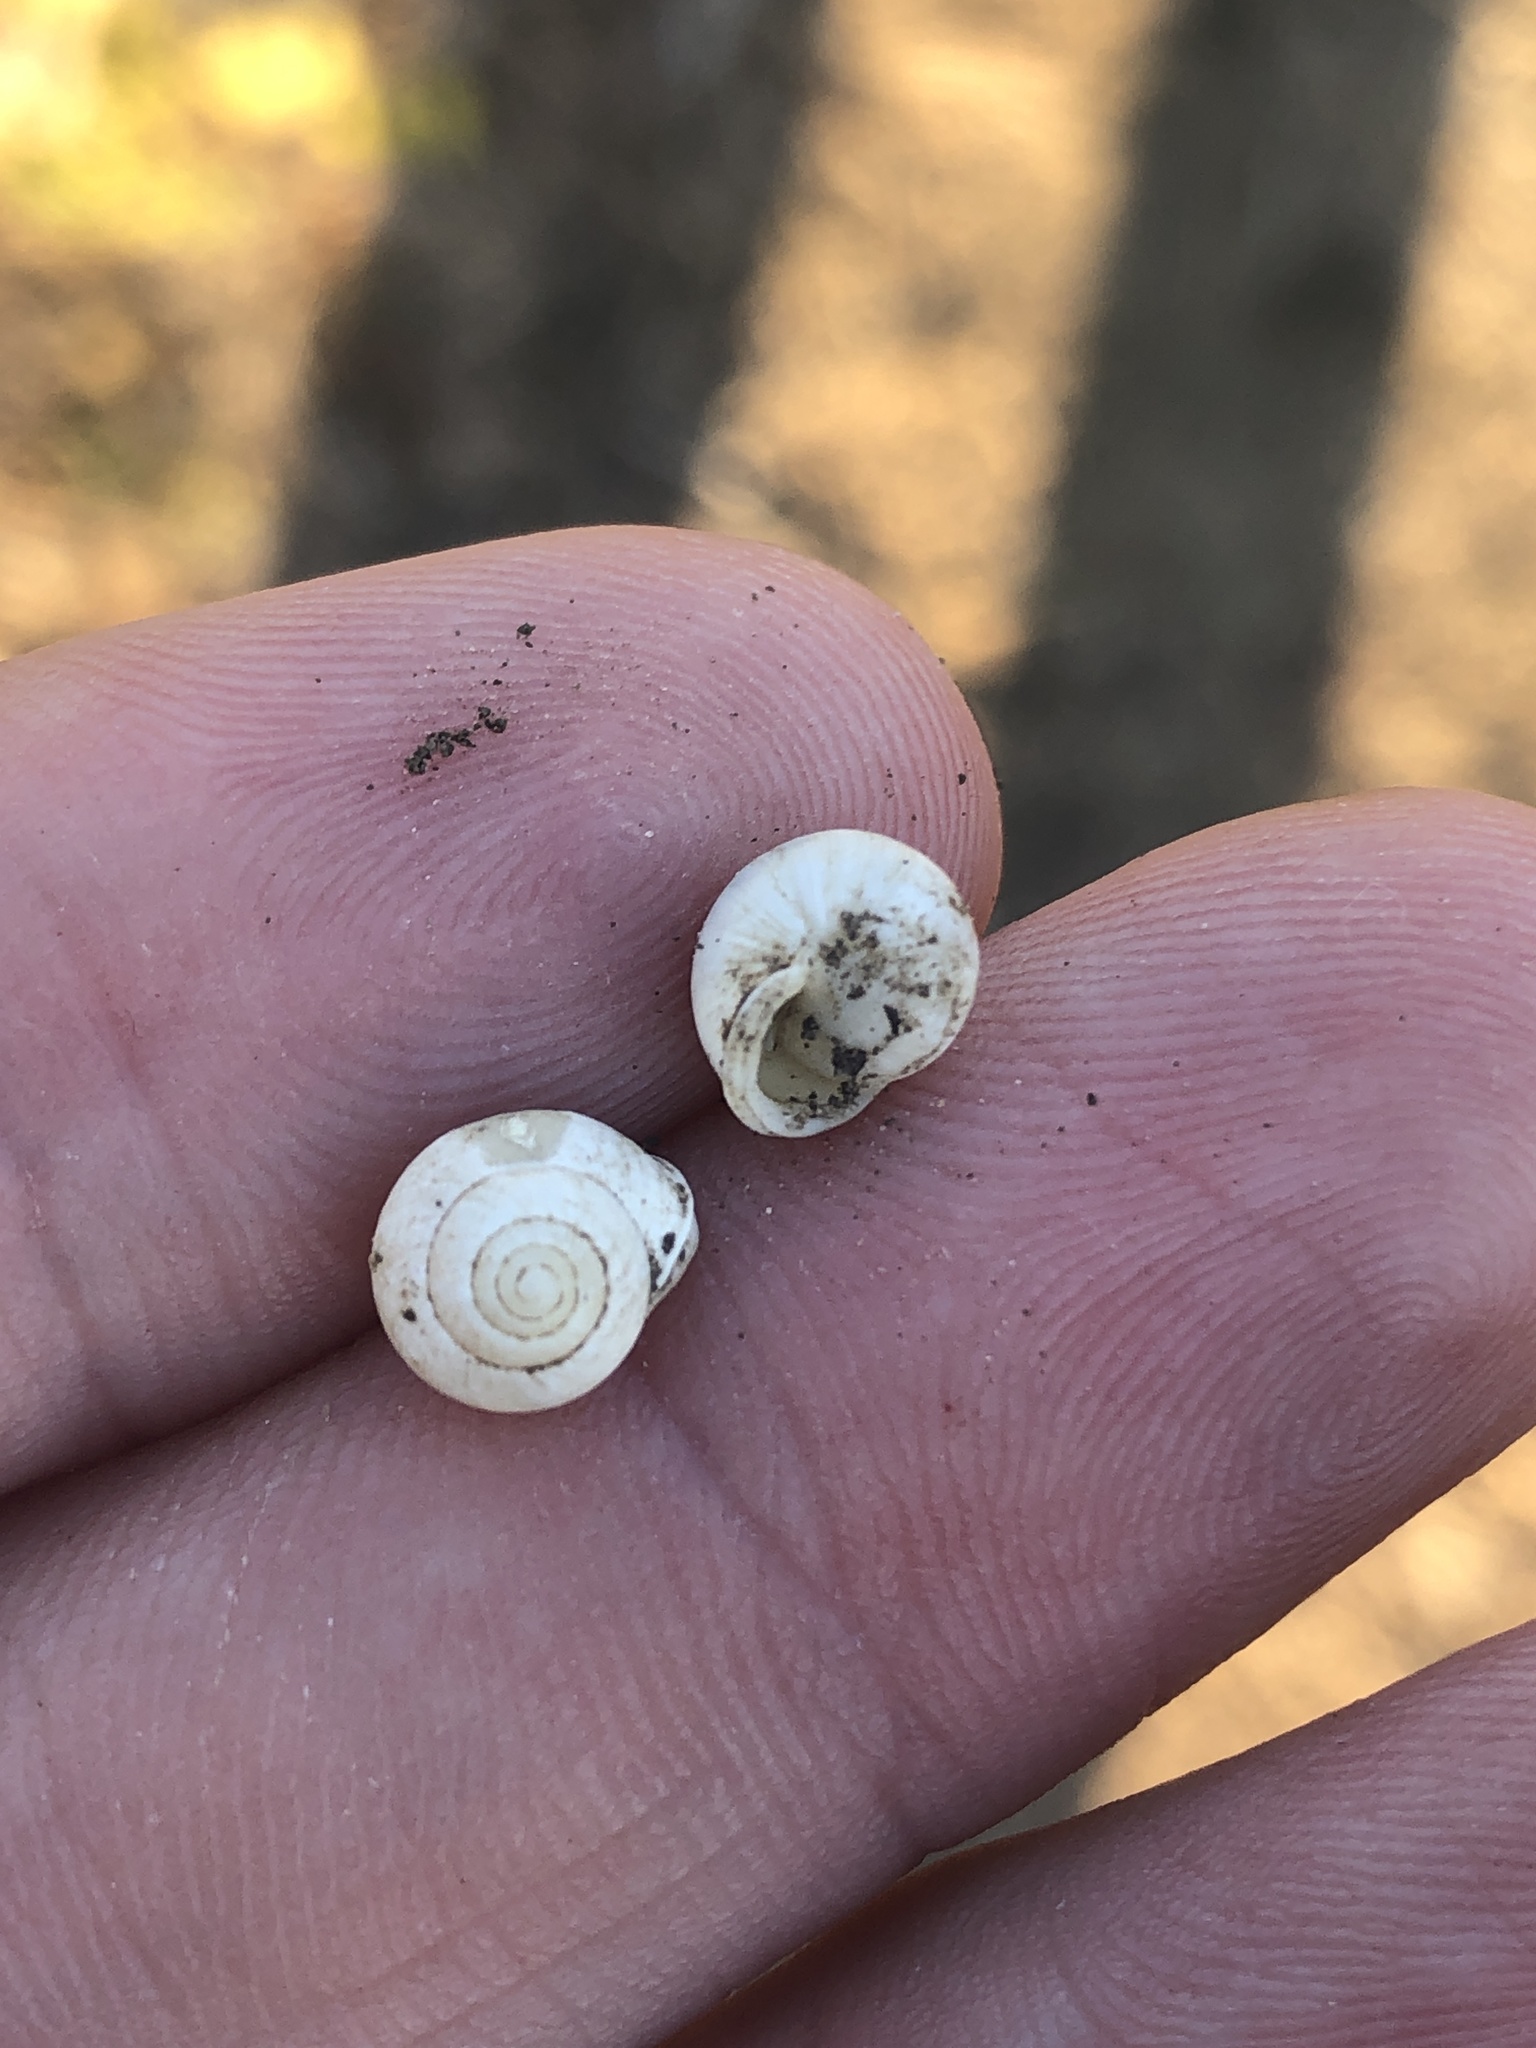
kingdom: Animalia
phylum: Mollusca
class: Gastropoda
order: Cycloneritida
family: Helicinidae
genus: Helicina
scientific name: Helicina orbiculata
